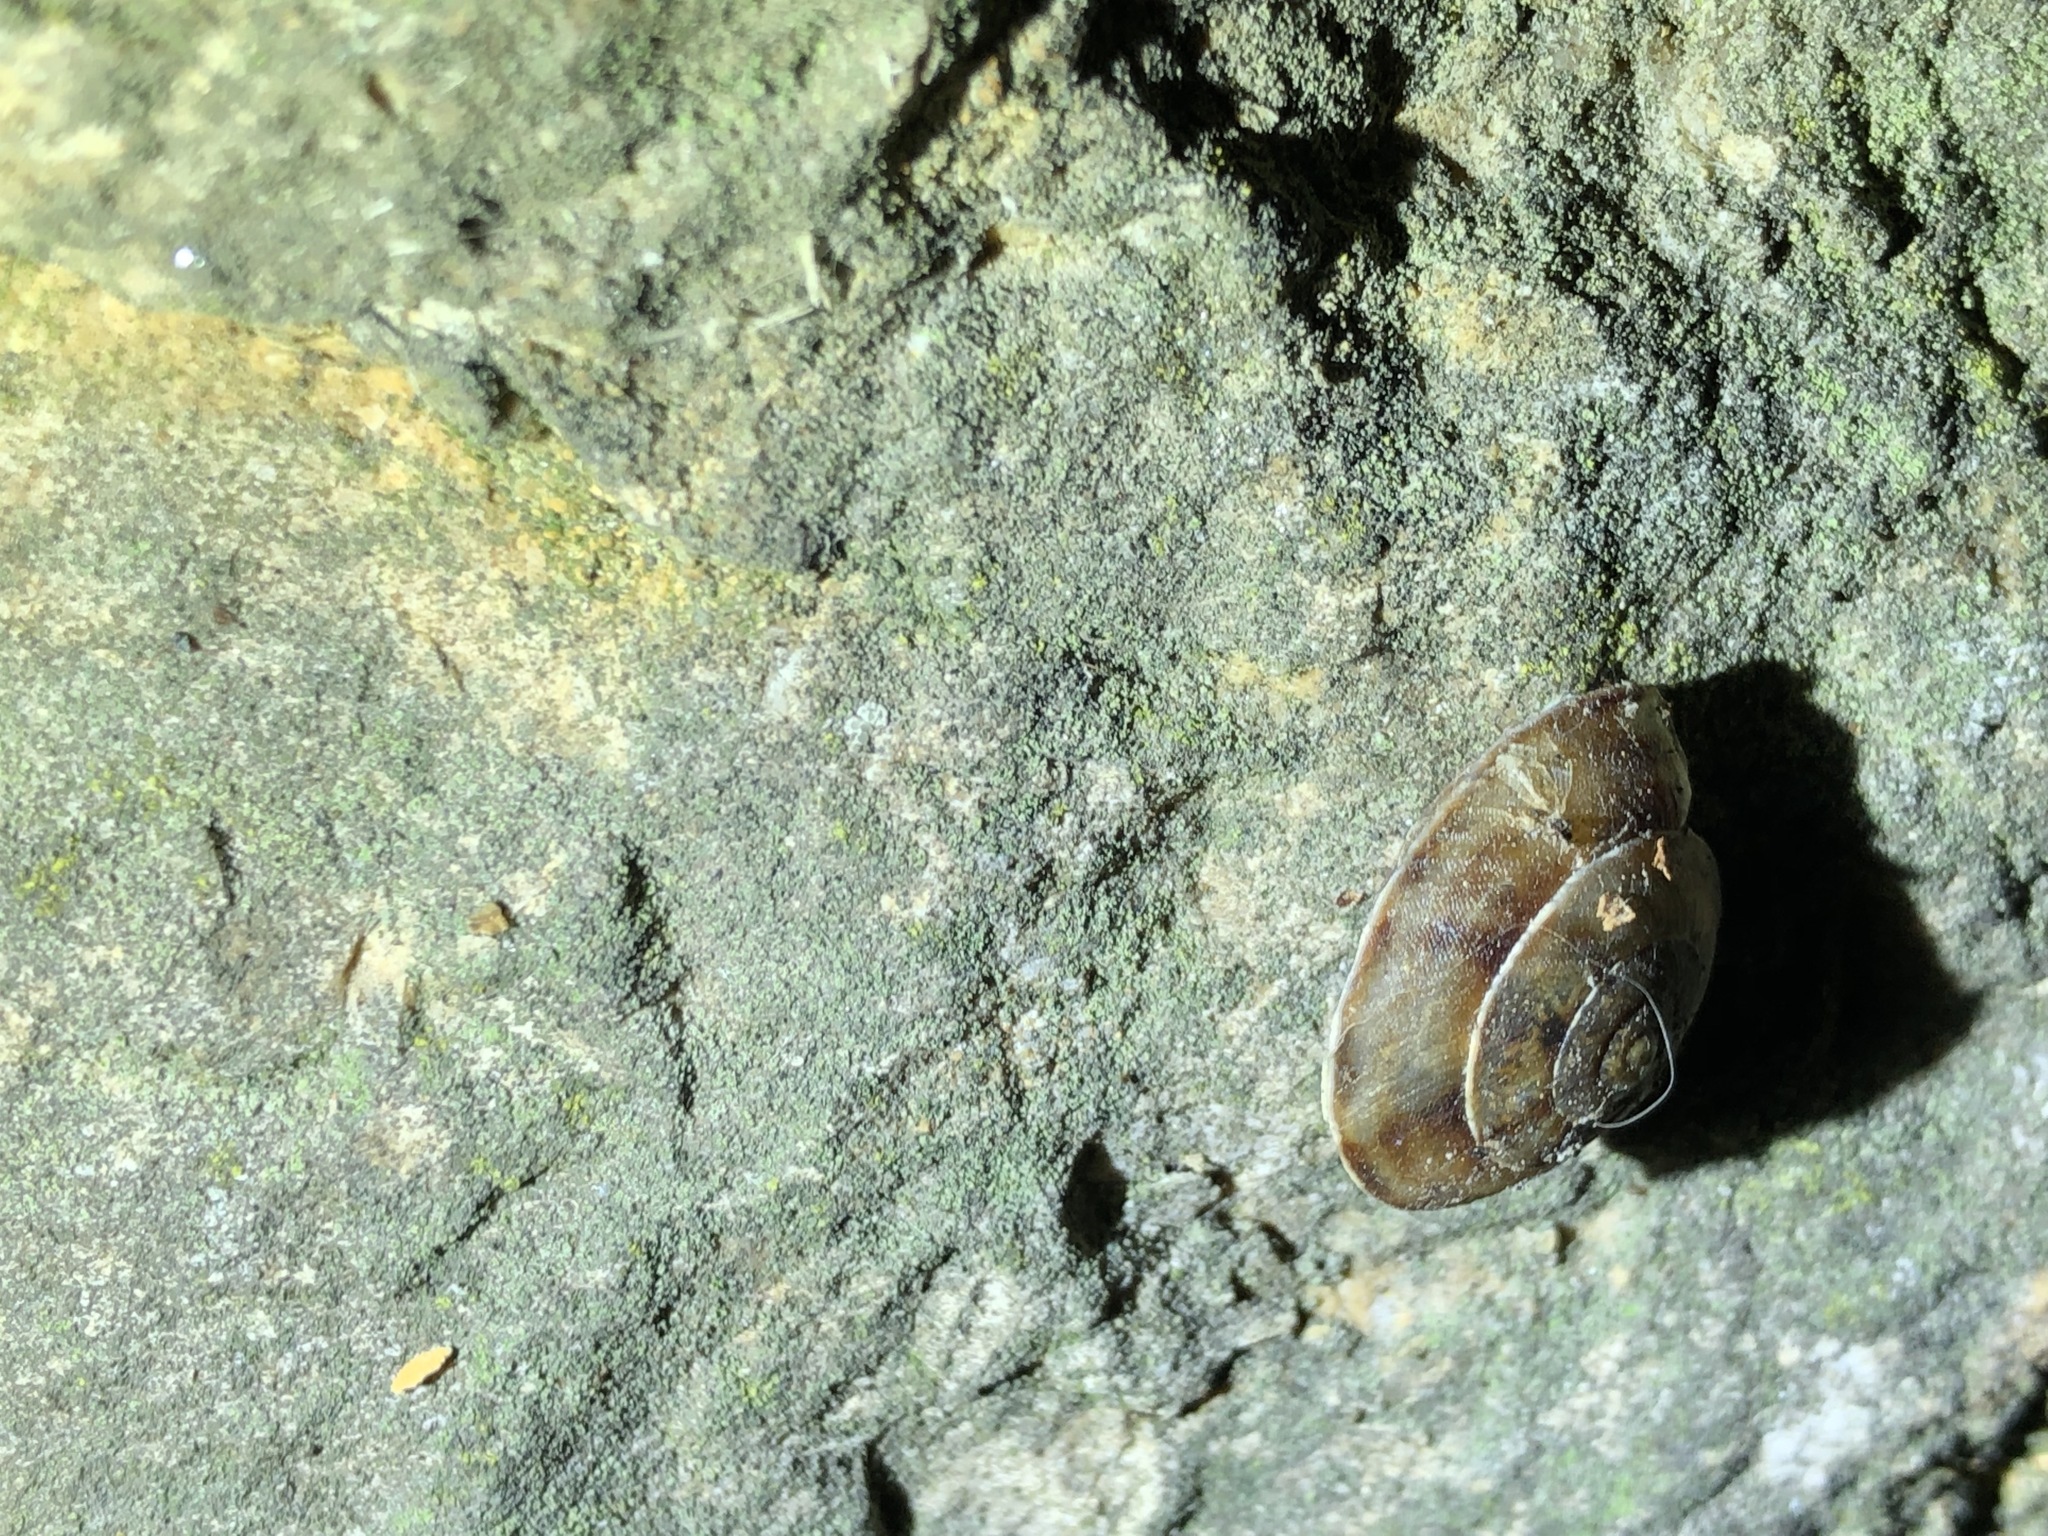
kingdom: Animalia
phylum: Mollusca
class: Gastropoda
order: Stylommatophora
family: Helicidae
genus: Helicigona
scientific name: Helicigona lapicida
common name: Lapidary snail
